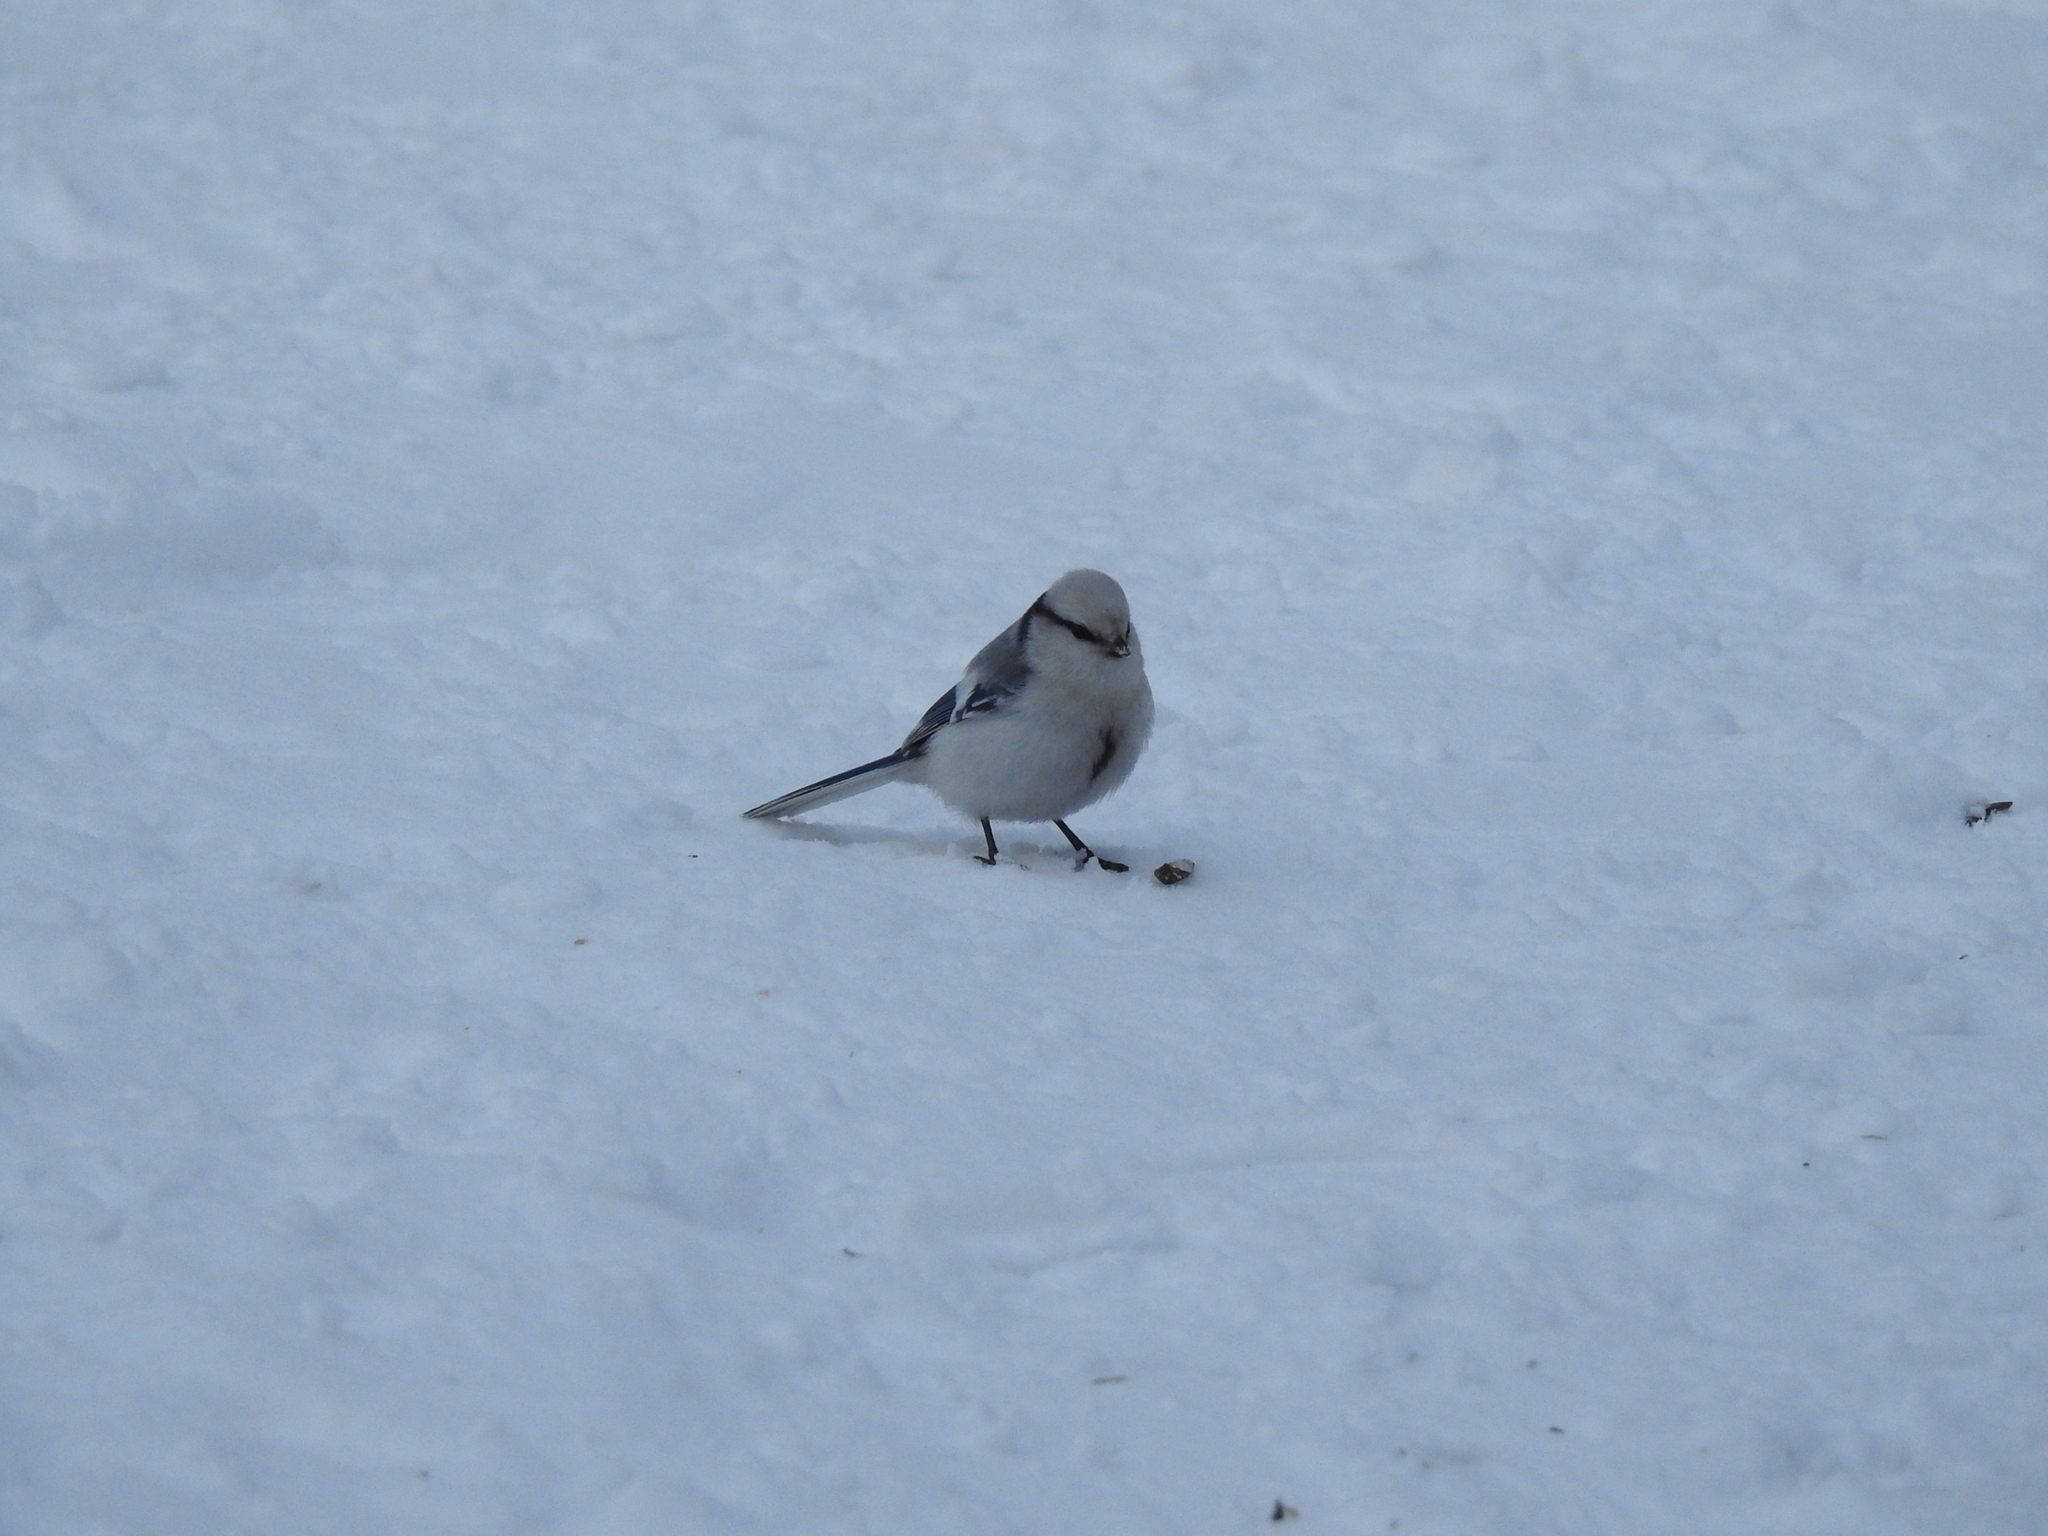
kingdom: Animalia
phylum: Chordata
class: Aves
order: Passeriformes
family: Paridae
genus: Cyanistes
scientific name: Cyanistes cyanus
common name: Azure tit
